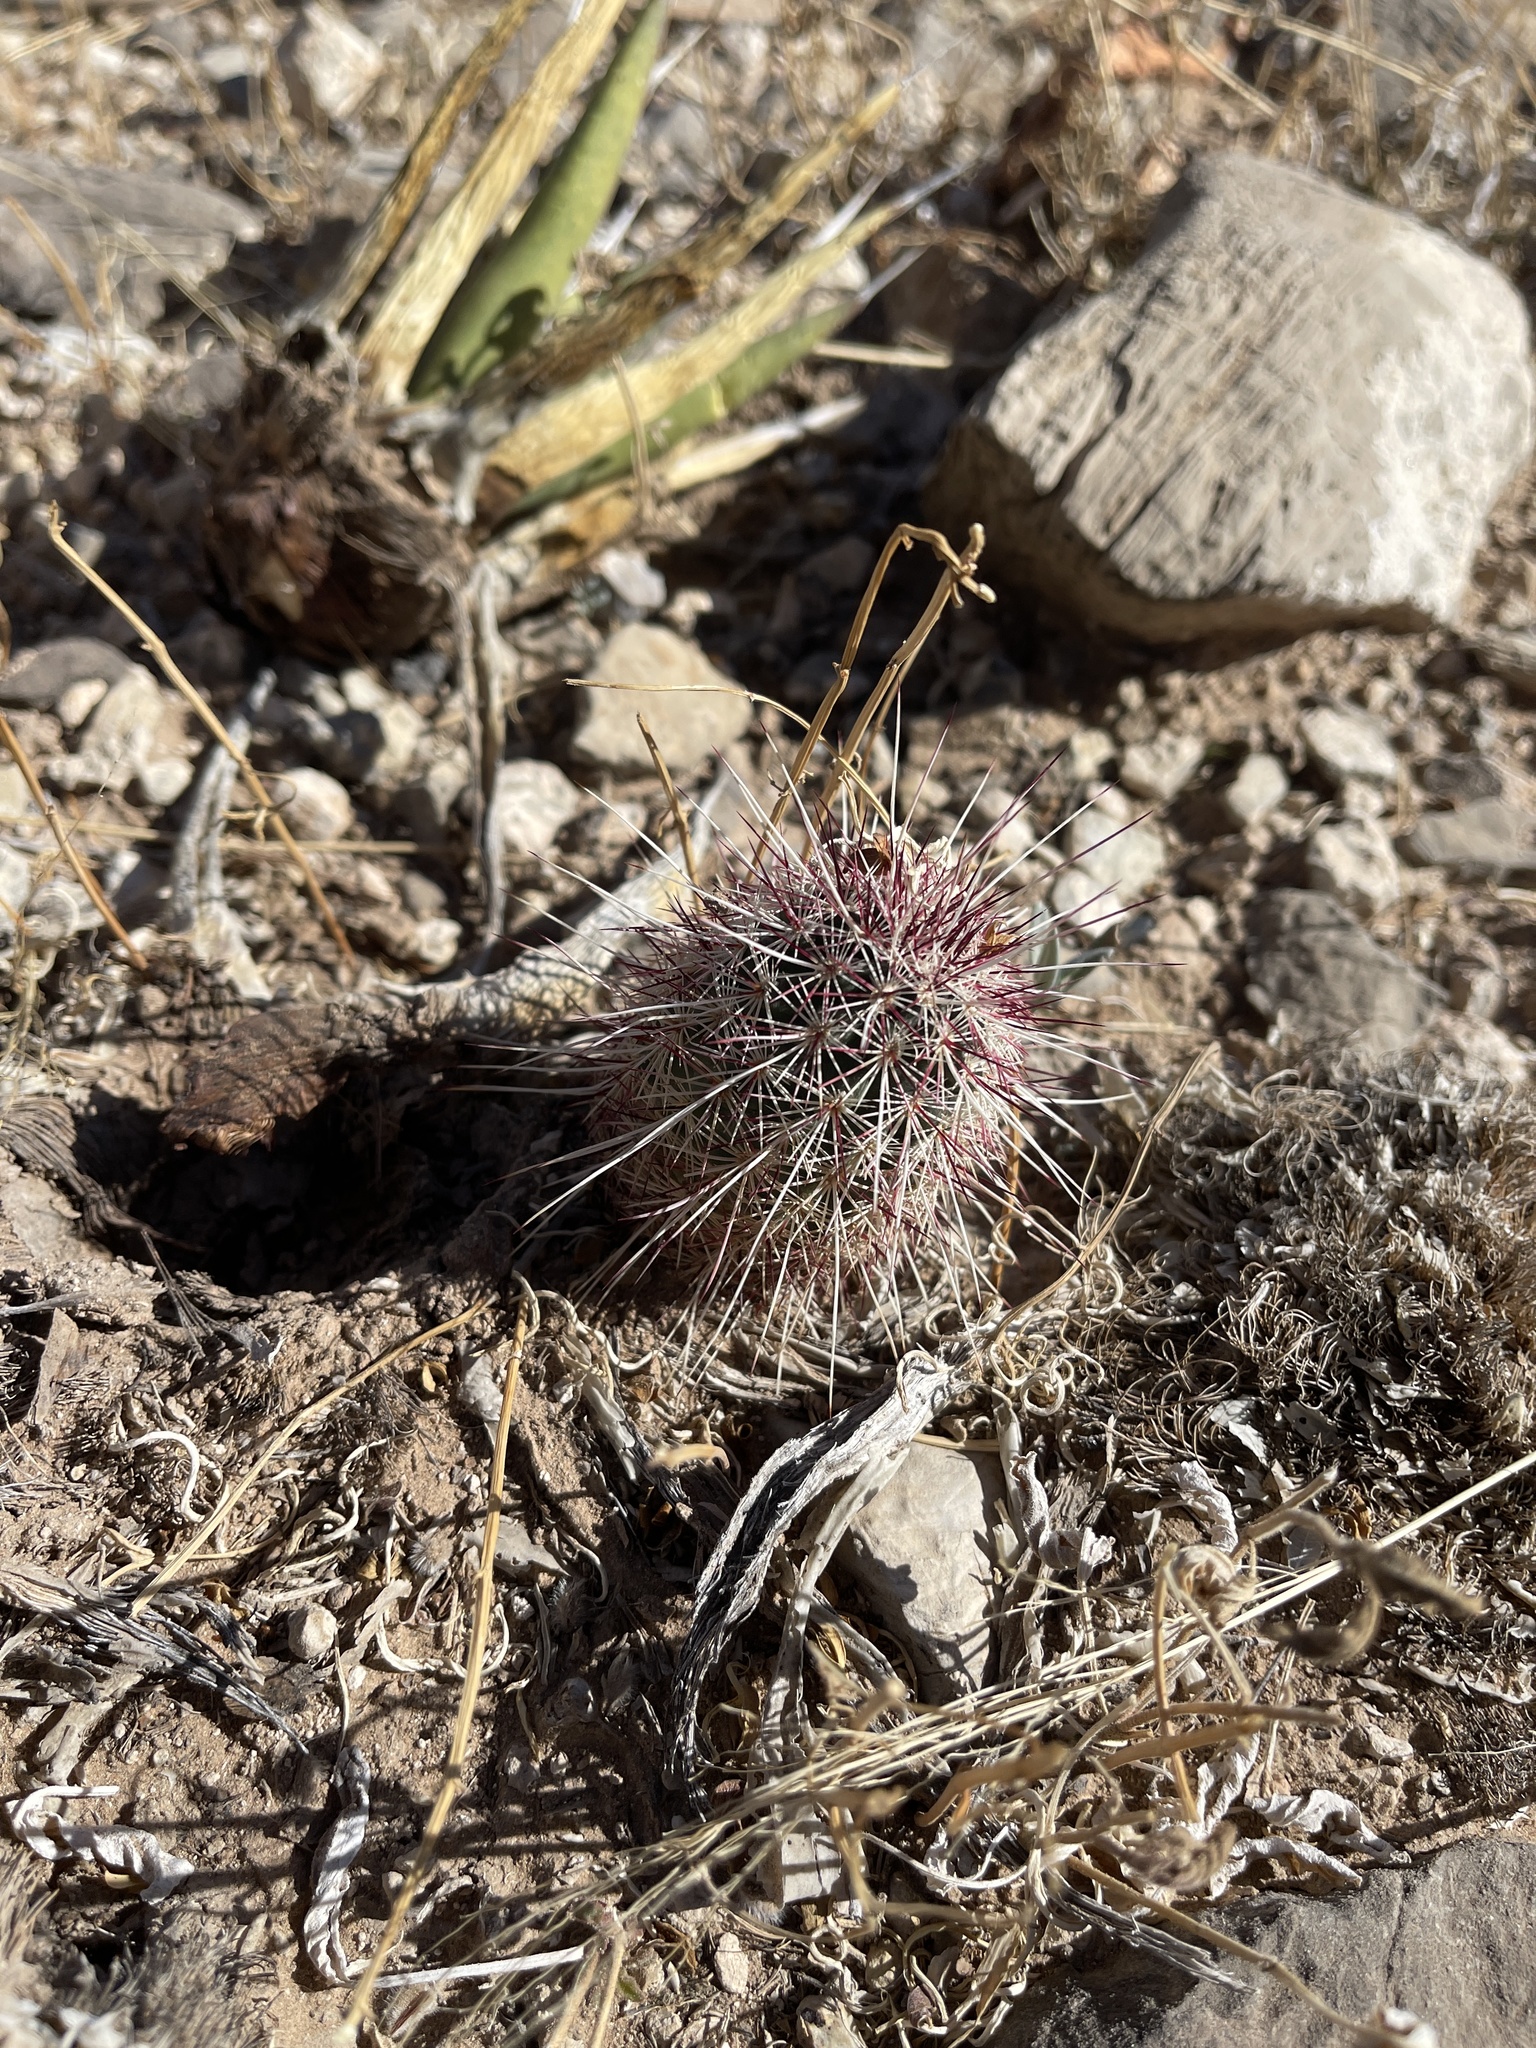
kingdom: Plantae
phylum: Tracheophyta
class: Magnoliopsida
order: Caryophyllales
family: Cactaceae
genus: Echinocereus
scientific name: Echinocereus viridiflorus
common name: Nylon hedgehog cactus
